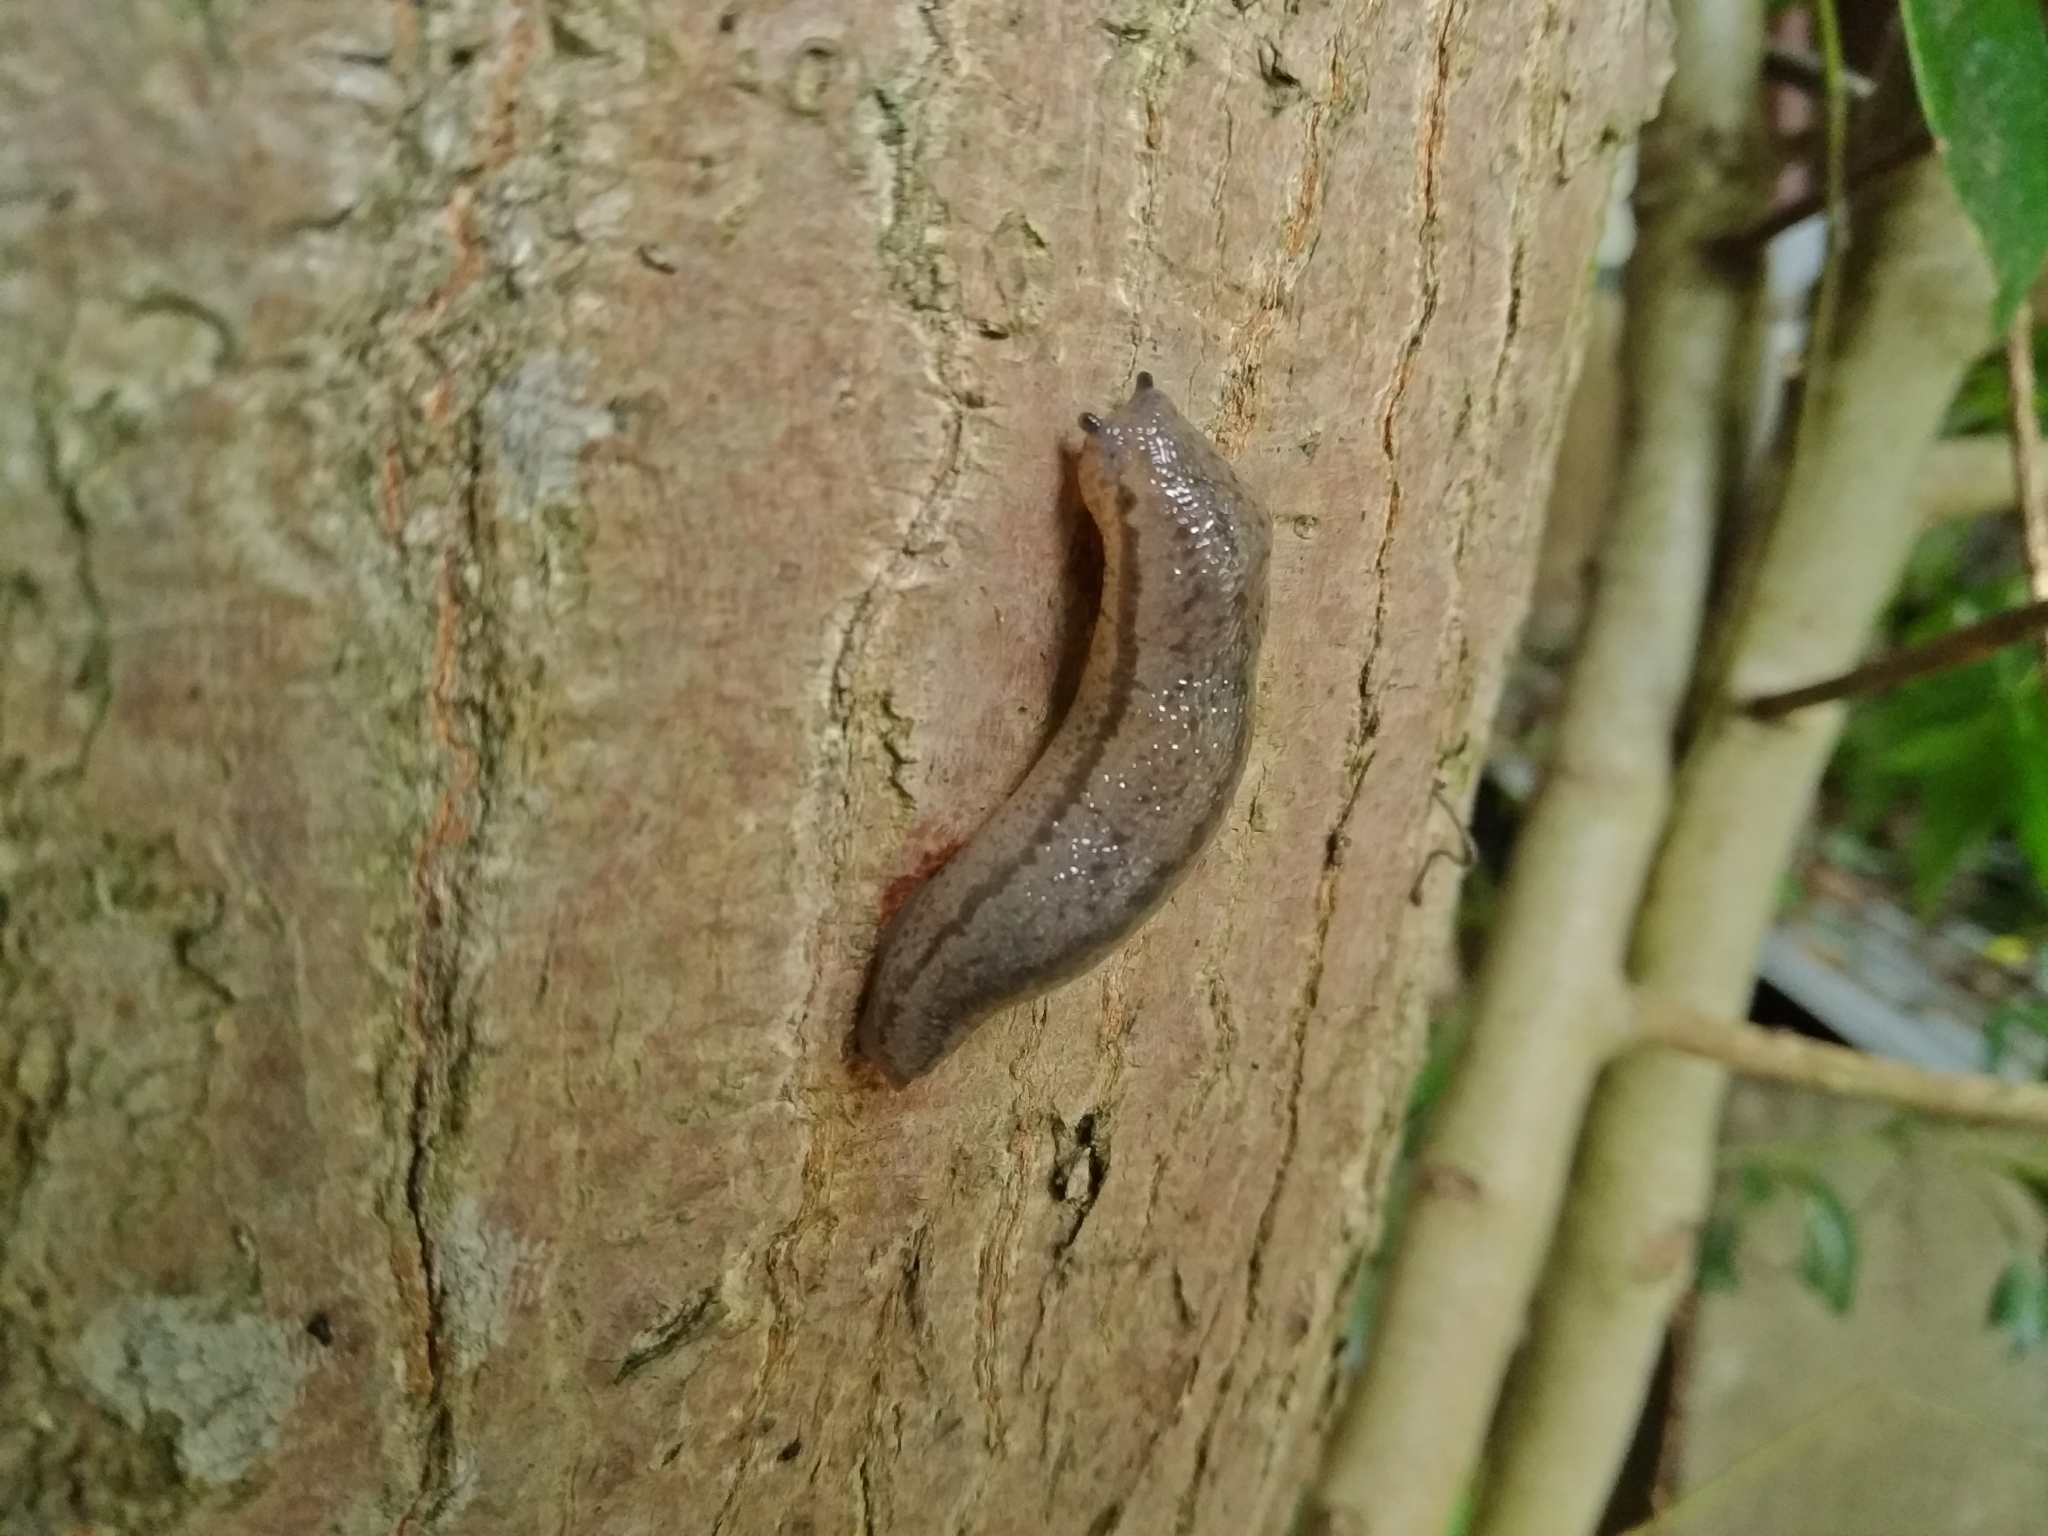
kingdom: Animalia
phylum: Mollusca
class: Gastropoda
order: Stylommatophora
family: Philomycidae
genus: Meghimatium
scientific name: Meghimatium bilineatum
